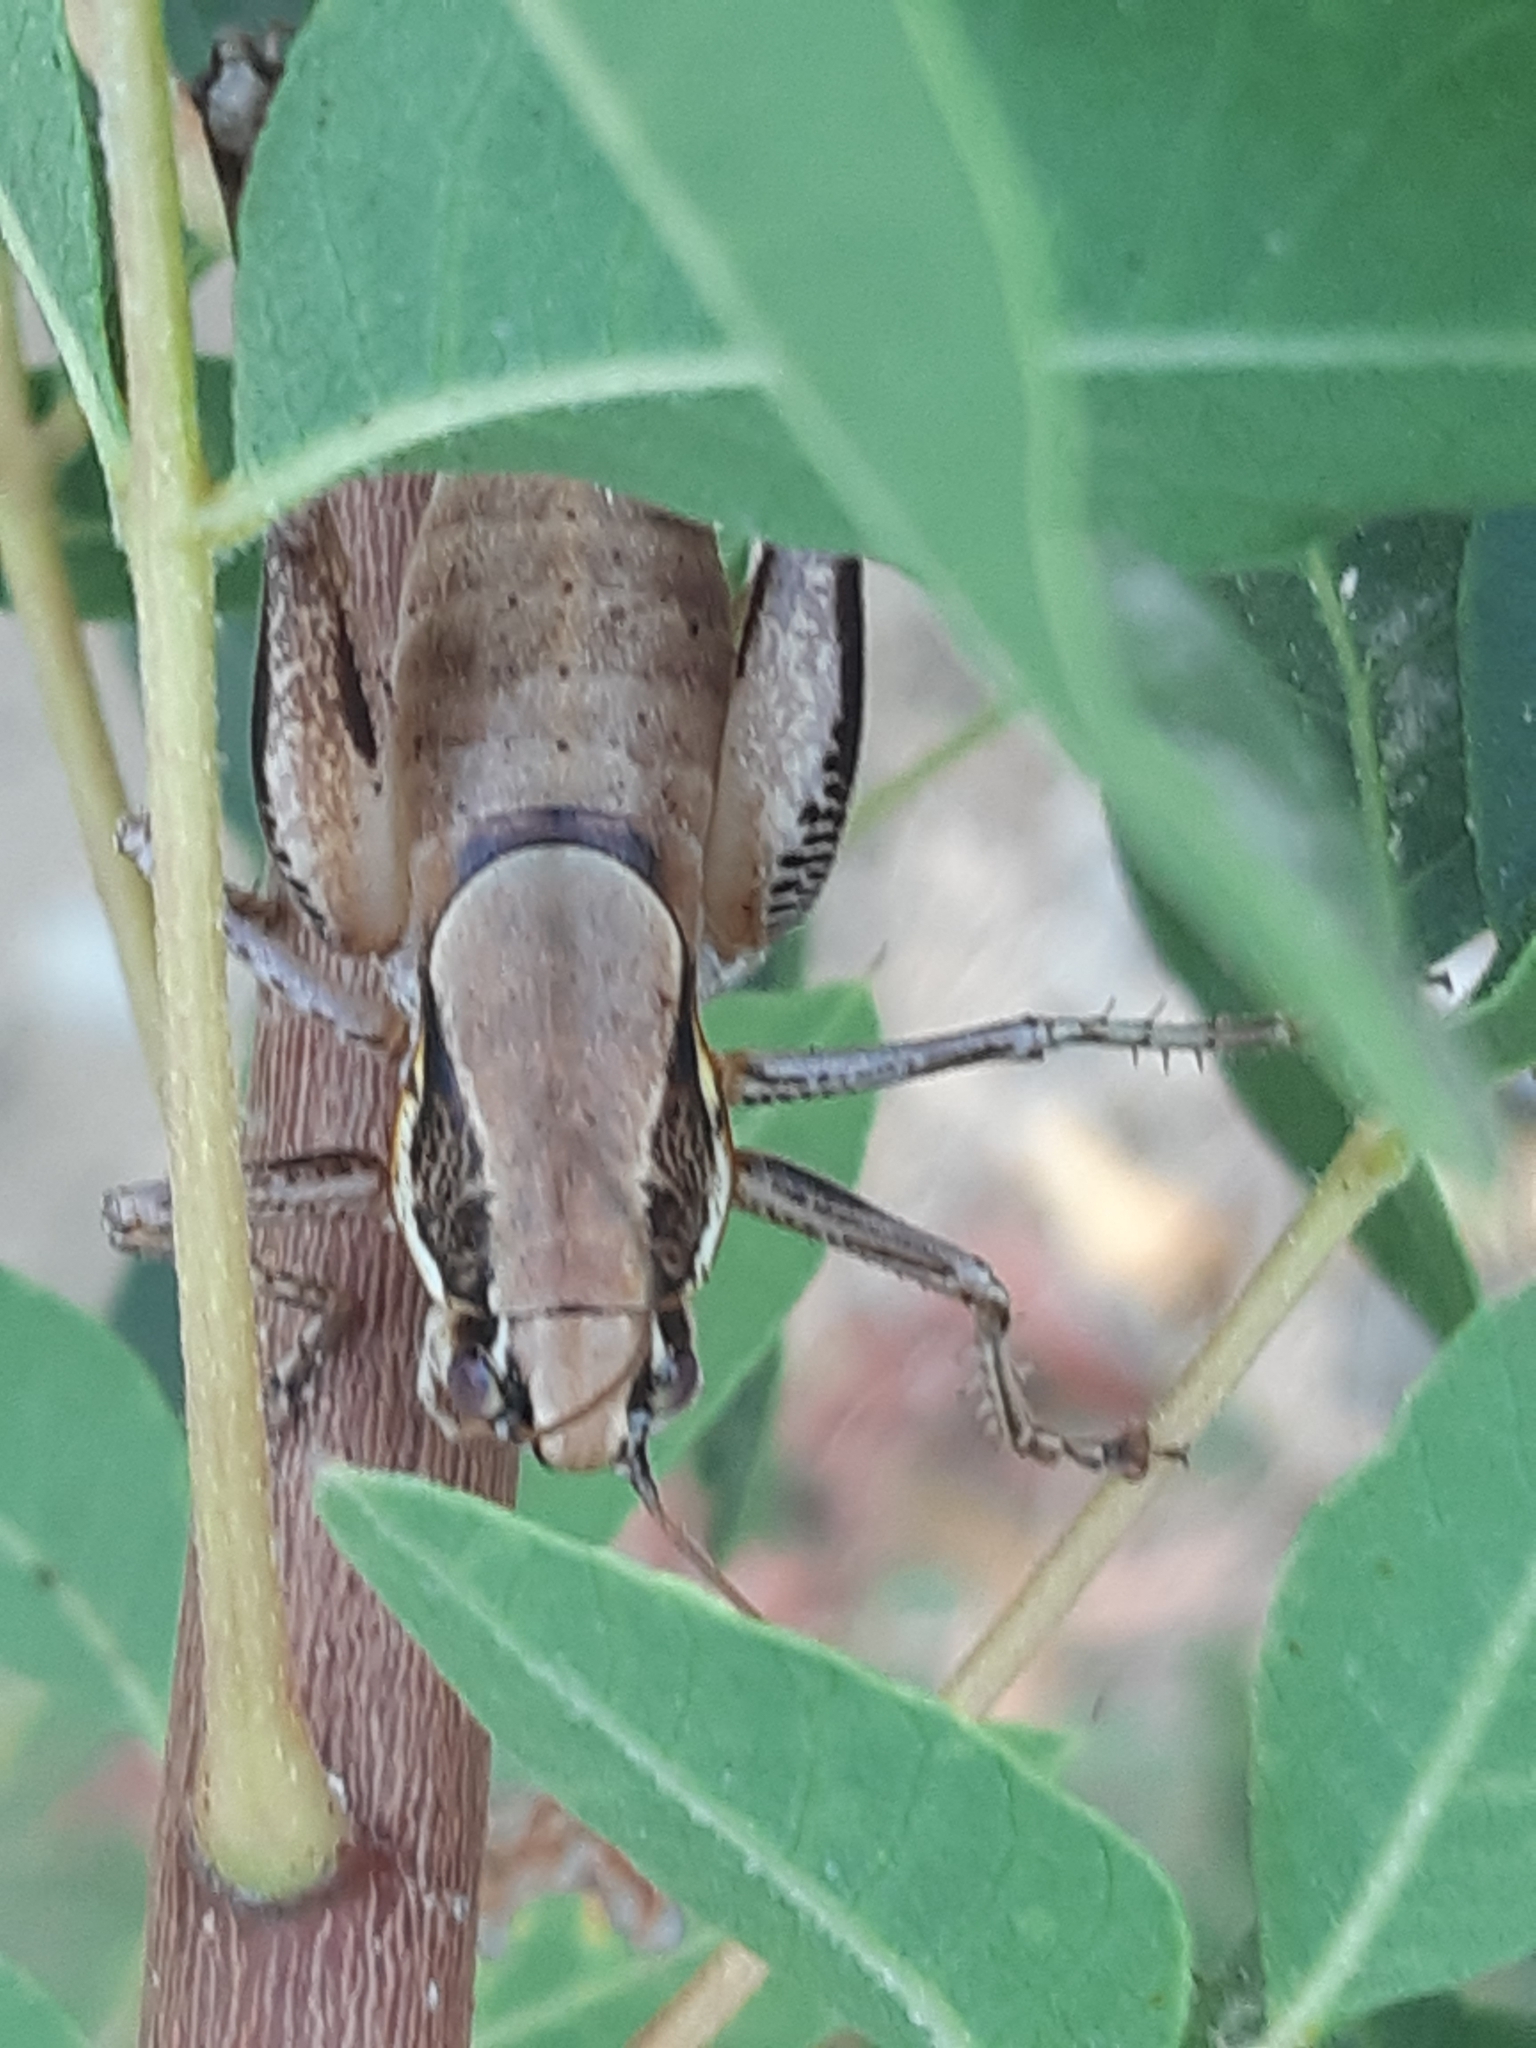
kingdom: Animalia
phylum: Arthropoda
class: Insecta
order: Orthoptera
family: Tettigoniidae
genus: Eupholidoptera
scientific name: Eupholidoptera cypria
